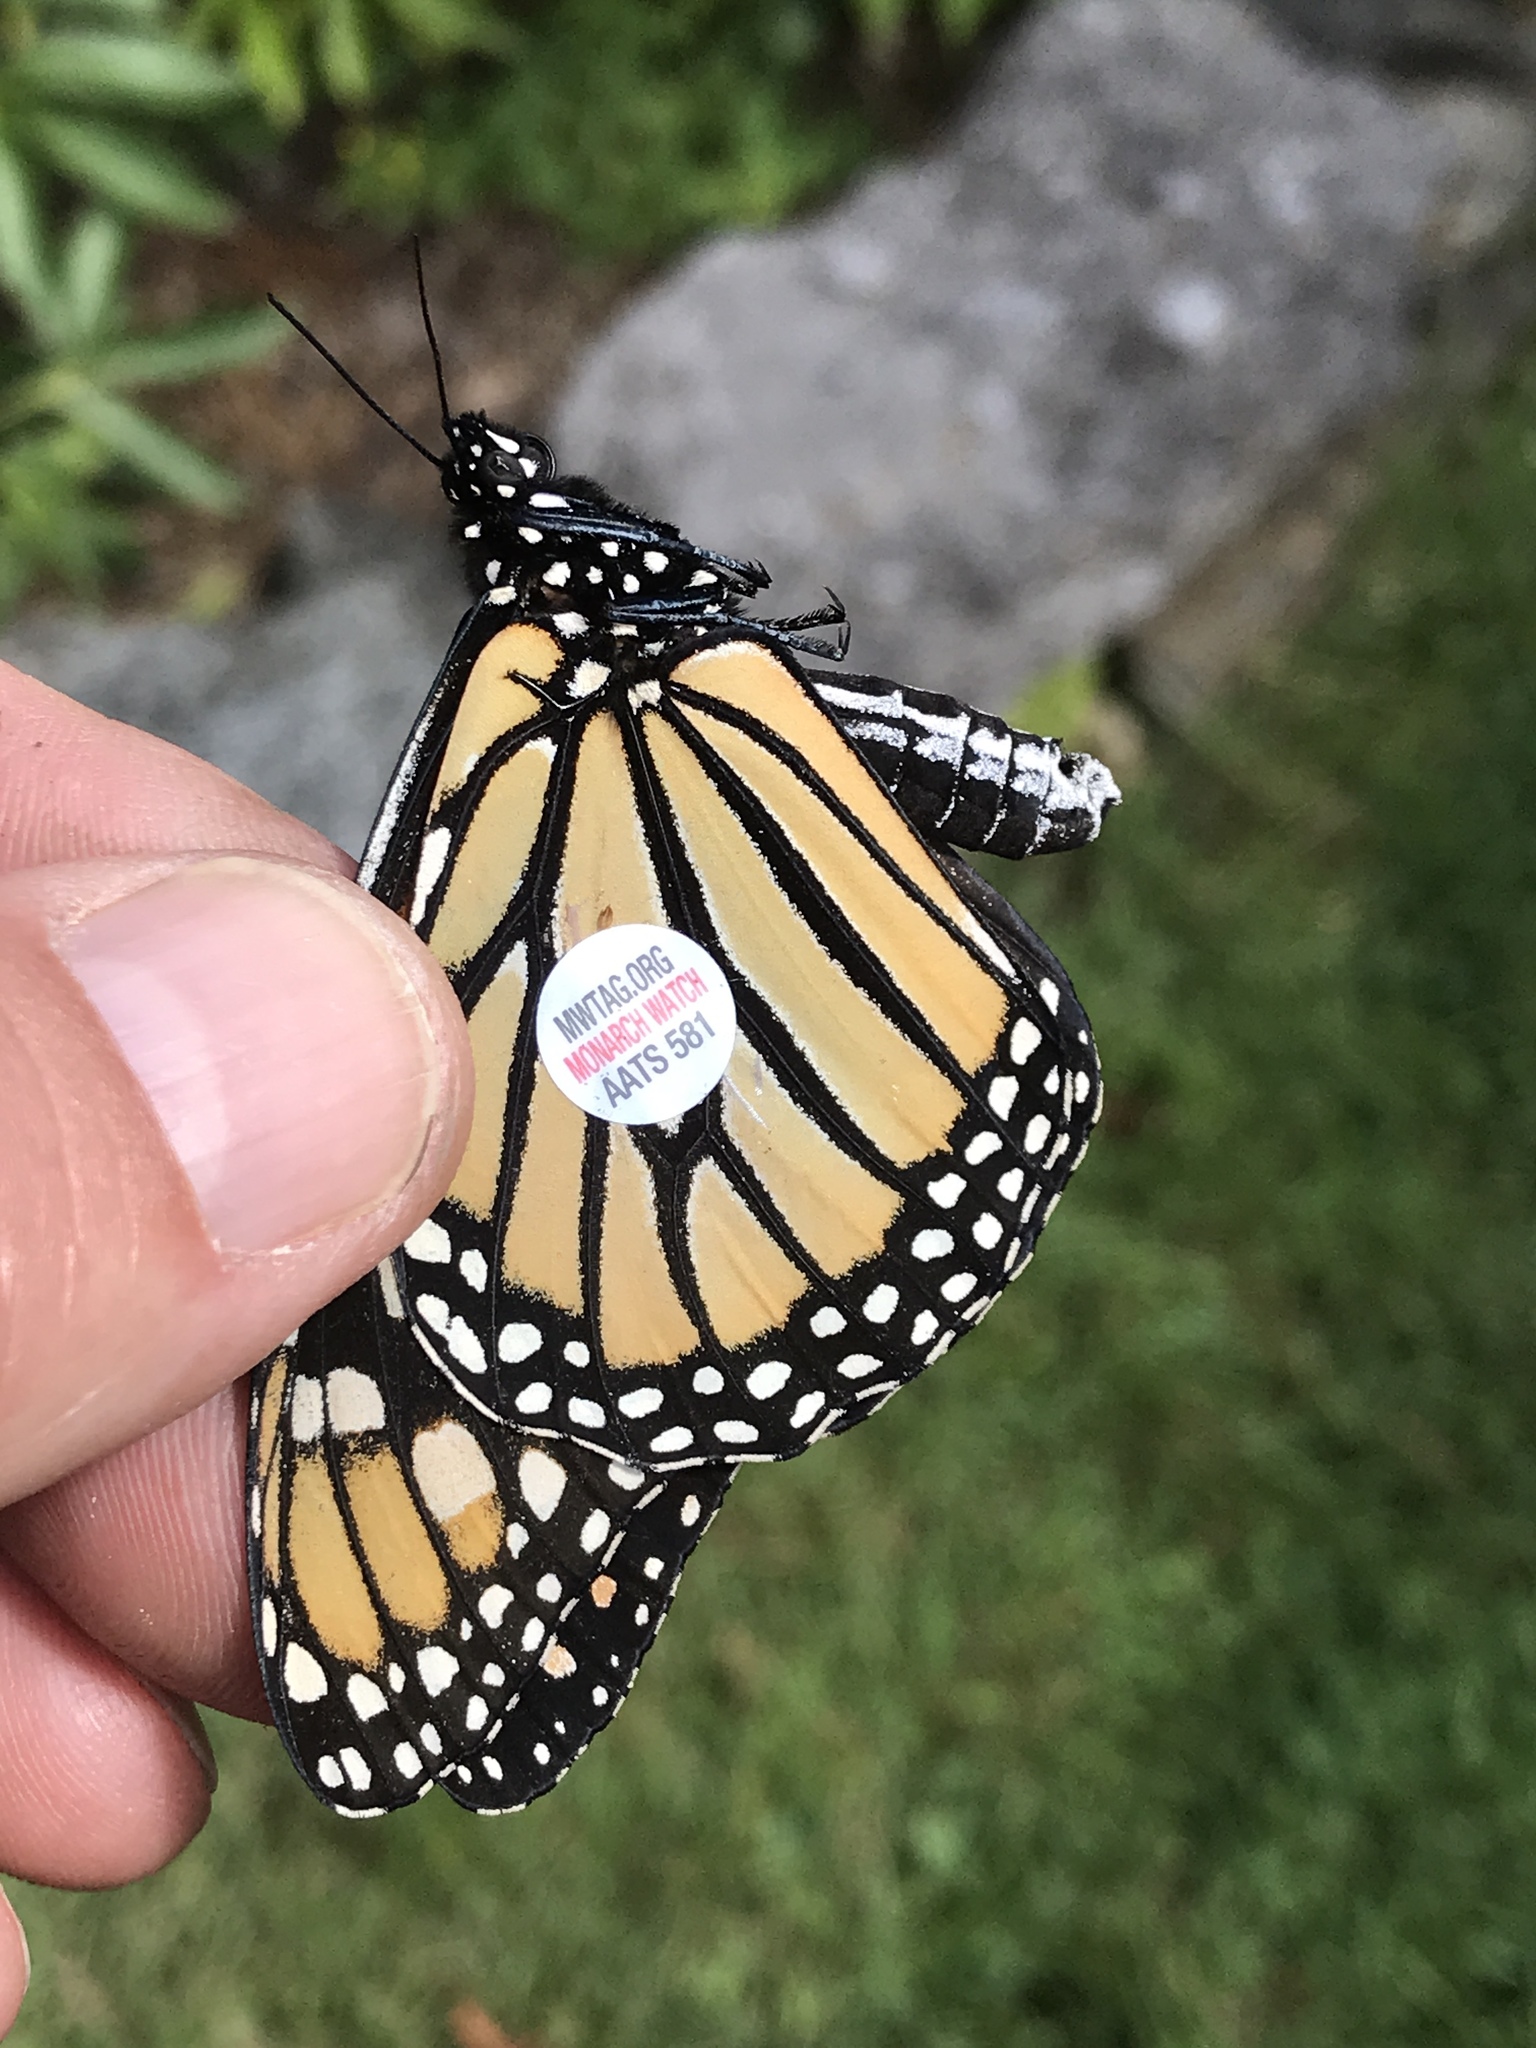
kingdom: Animalia
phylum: Arthropoda
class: Insecta
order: Lepidoptera
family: Nymphalidae
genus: Danaus
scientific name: Danaus plexippus
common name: Monarch
